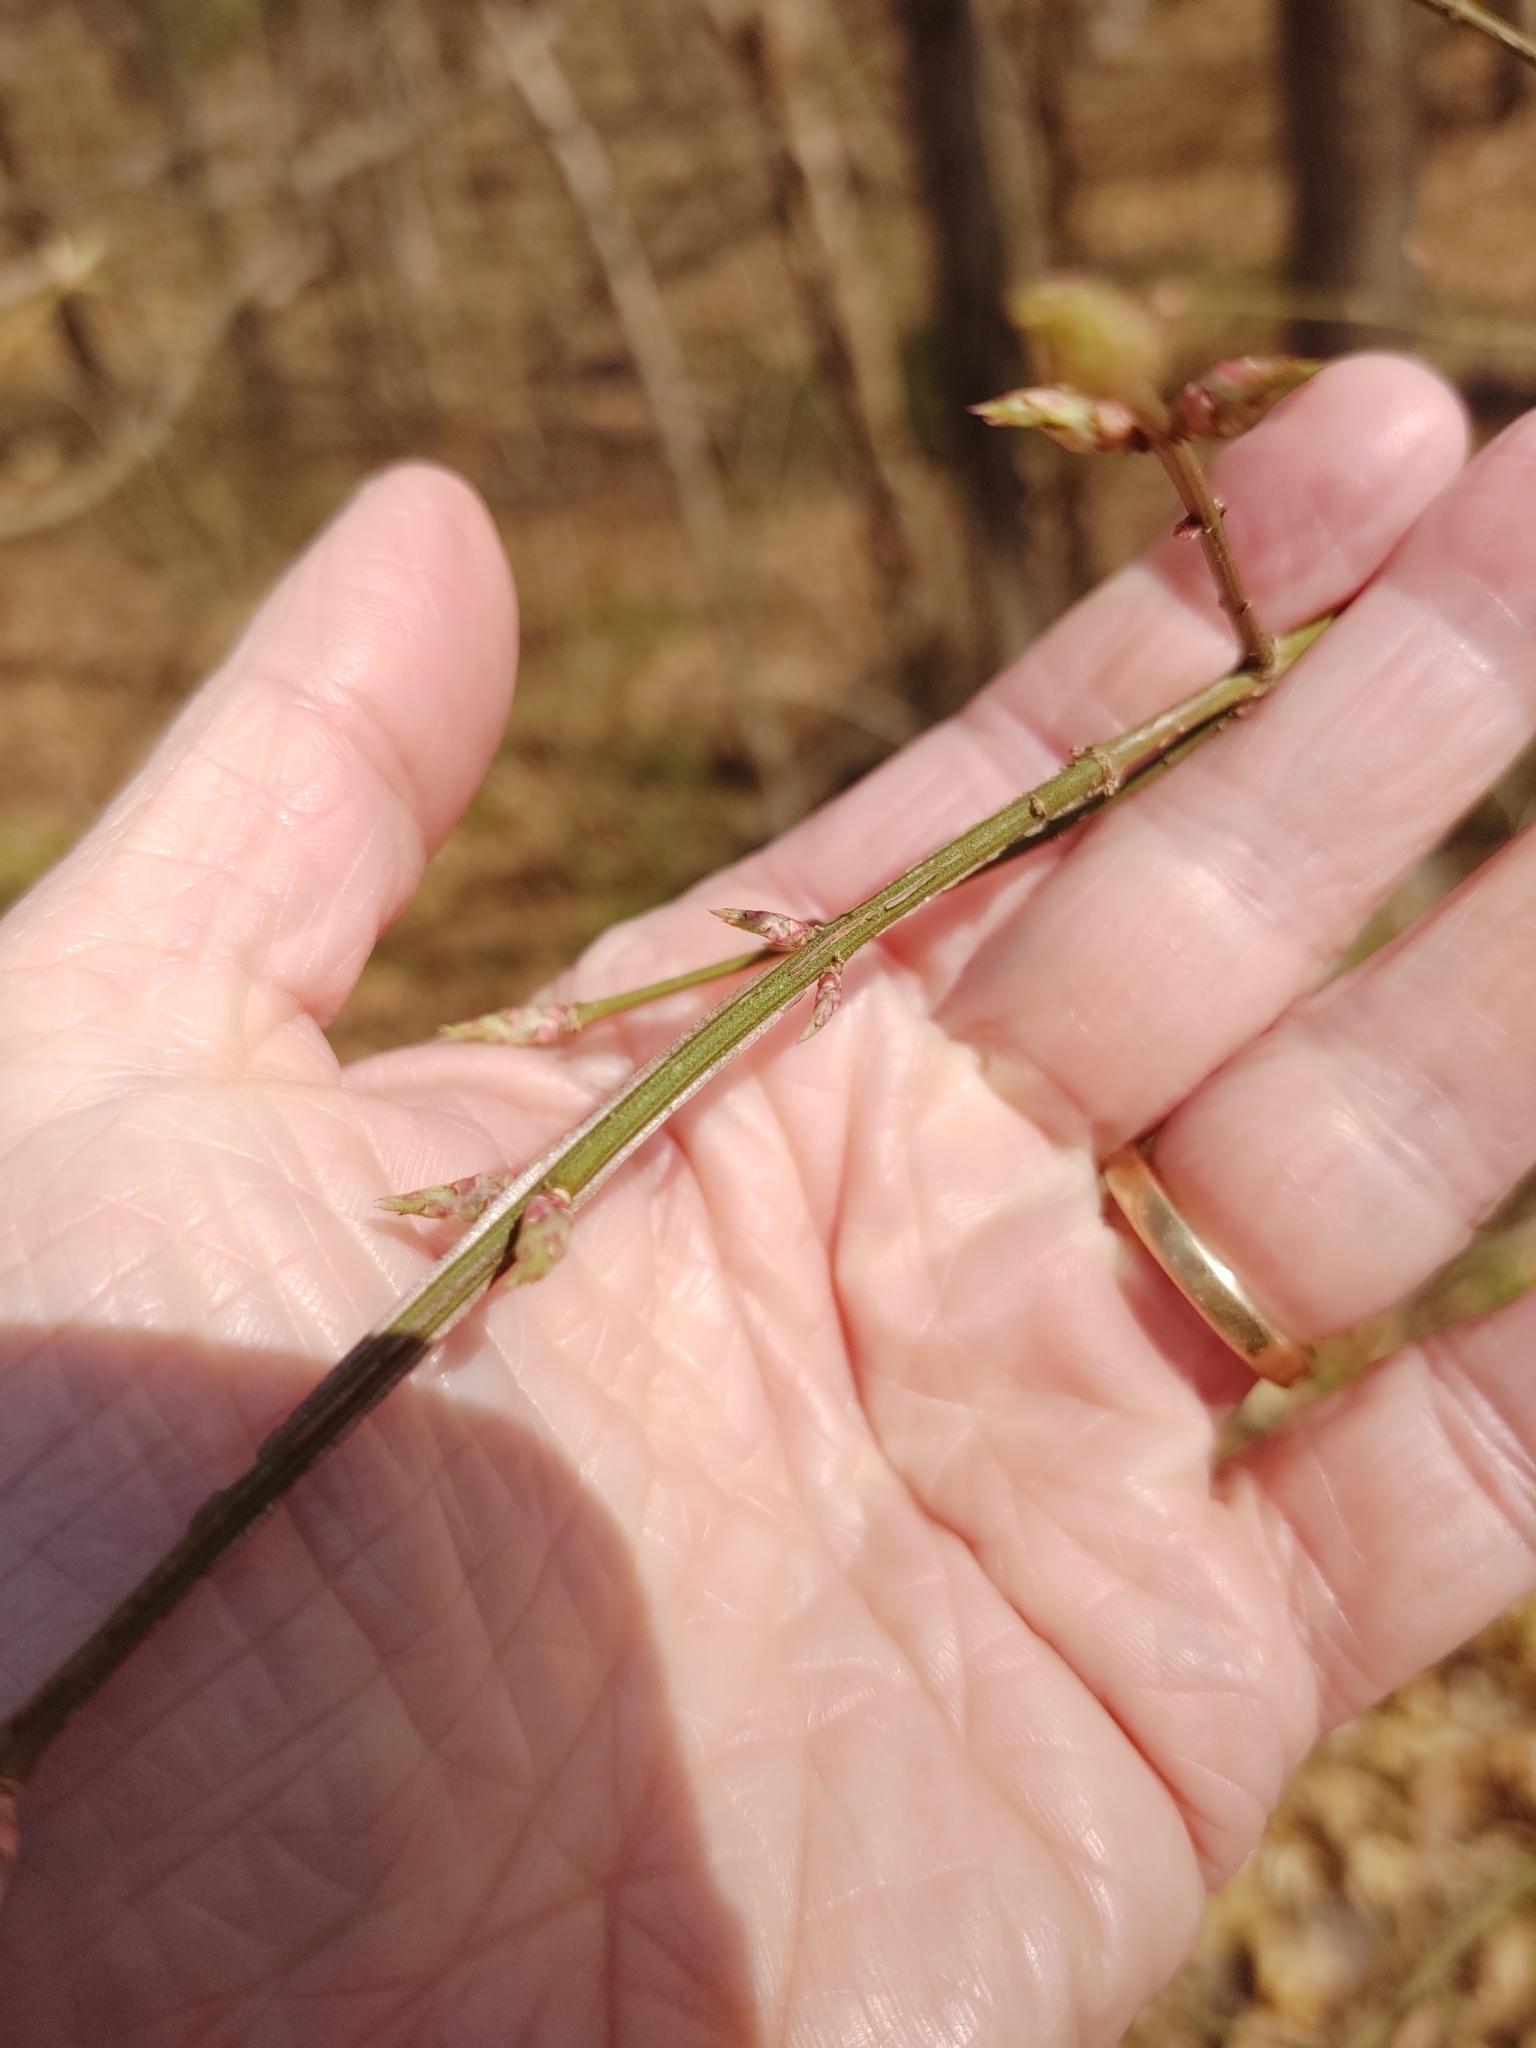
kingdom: Plantae
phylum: Tracheophyta
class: Magnoliopsida
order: Celastrales
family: Celastraceae
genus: Euonymus
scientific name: Euonymus alatus
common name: Winged euonymus
